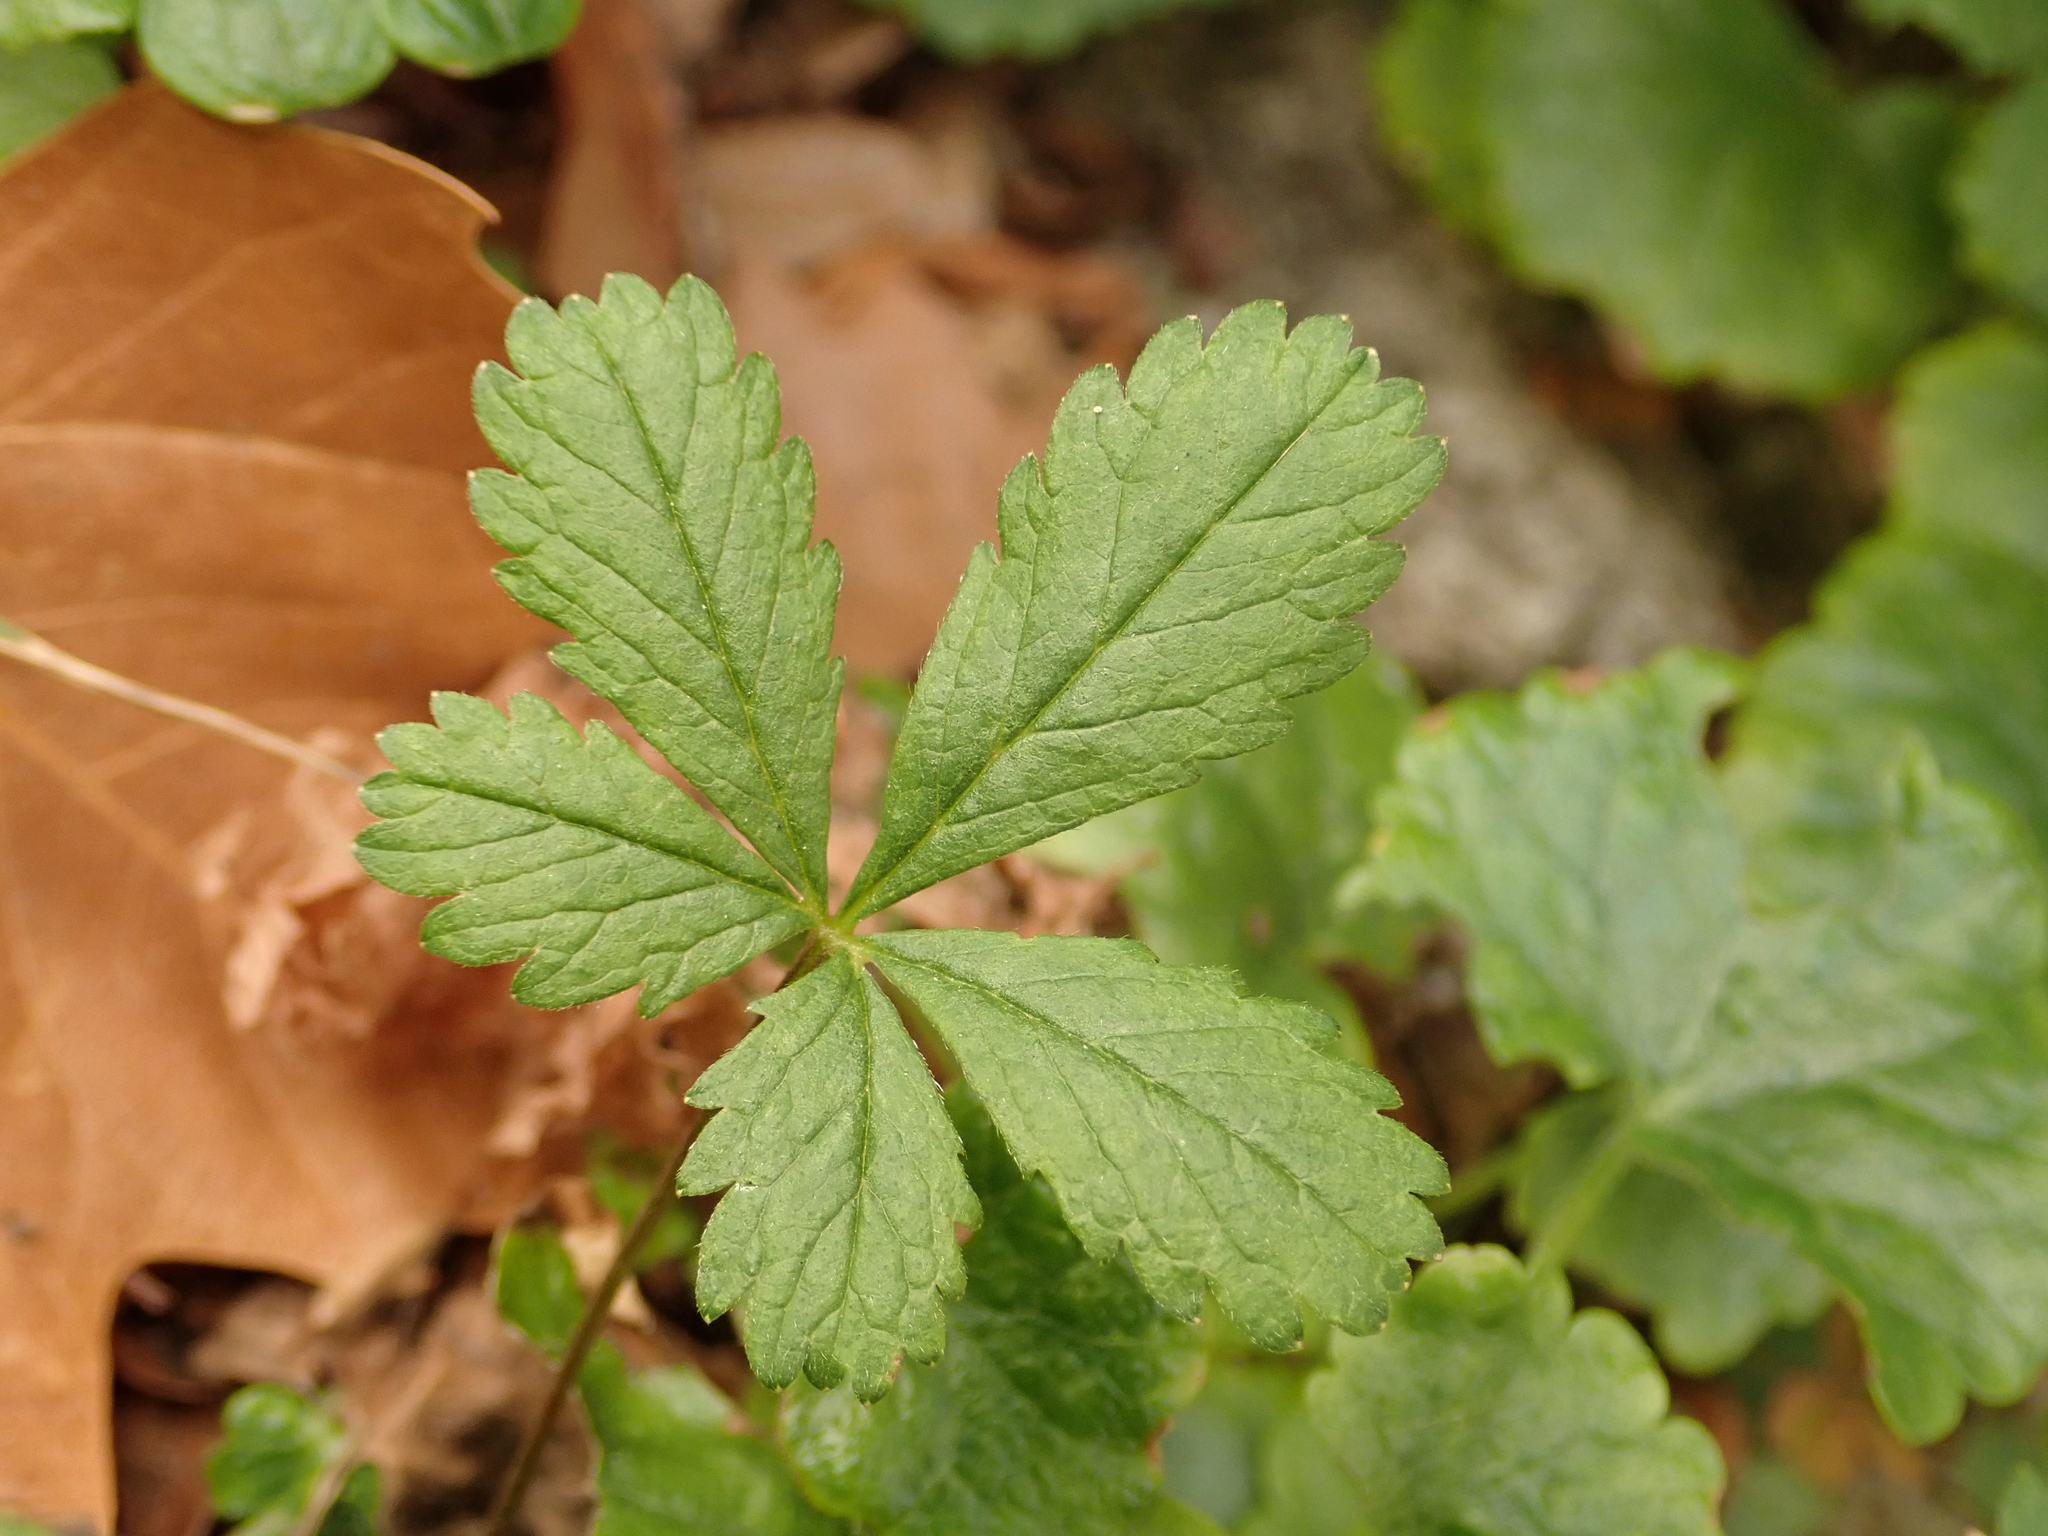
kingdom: Plantae
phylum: Tracheophyta
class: Magnoliopsida
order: Rosales
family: Rosaceae
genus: Potentilla
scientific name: Potentilla reptans
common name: Creeping cinquefoil
